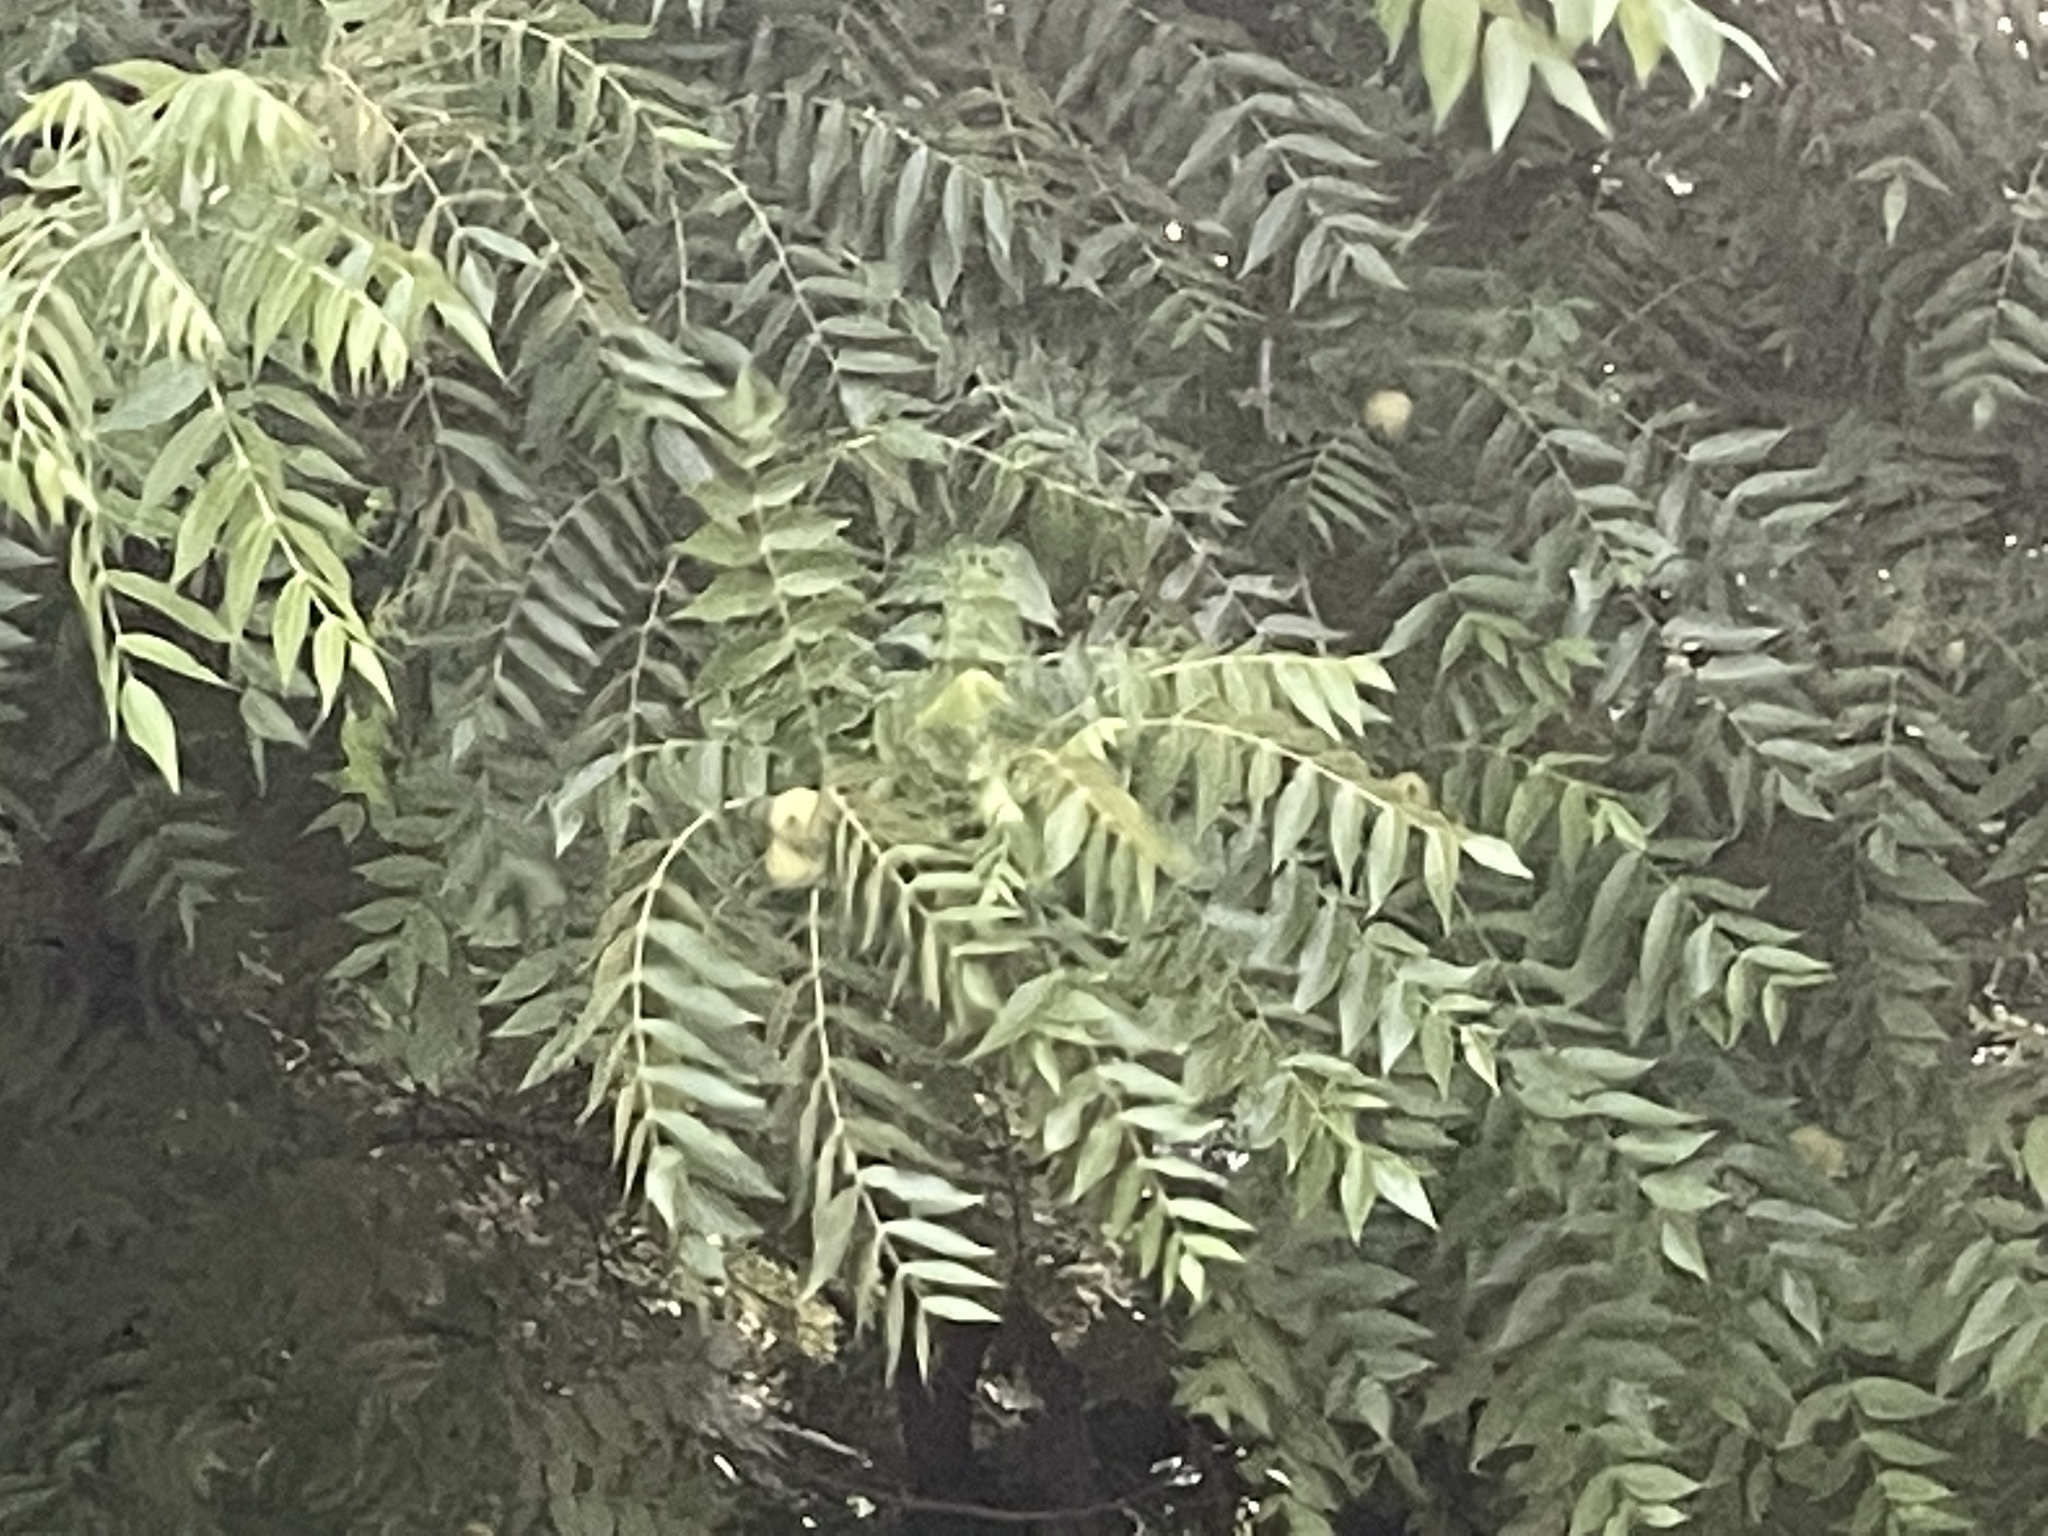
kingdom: Plantae
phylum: Tracheophyta
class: Magnoliopsida
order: Fagales
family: Juglandaceae
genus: Juglans
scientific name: Juglans nigra
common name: Black walnut
